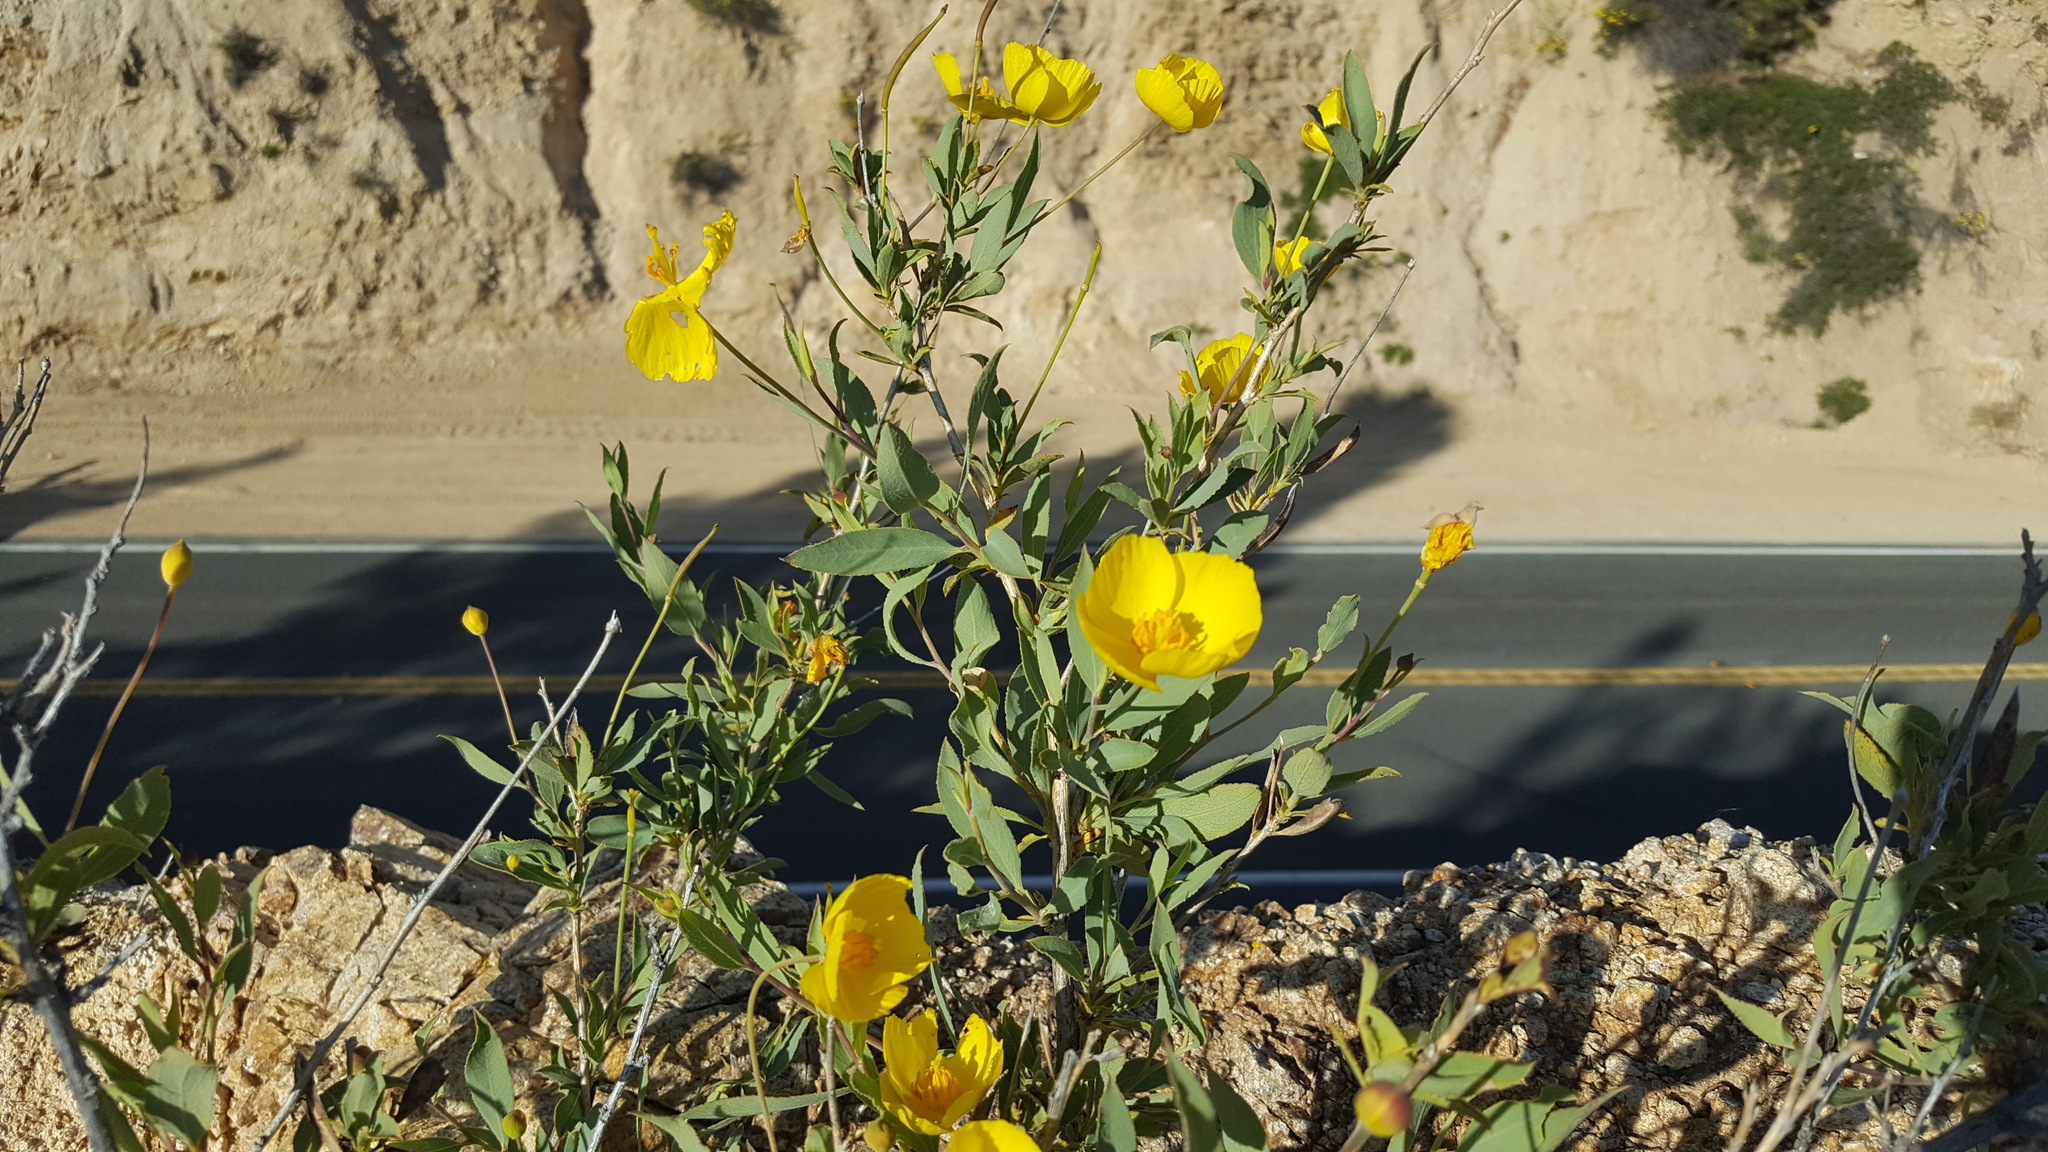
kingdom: Plantae
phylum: Tracheophyta
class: Magnoliopsida
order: Ranunculales
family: Papaveraceae
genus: Dendromecon
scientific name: Dendromecon rigida
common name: Tree poppy
